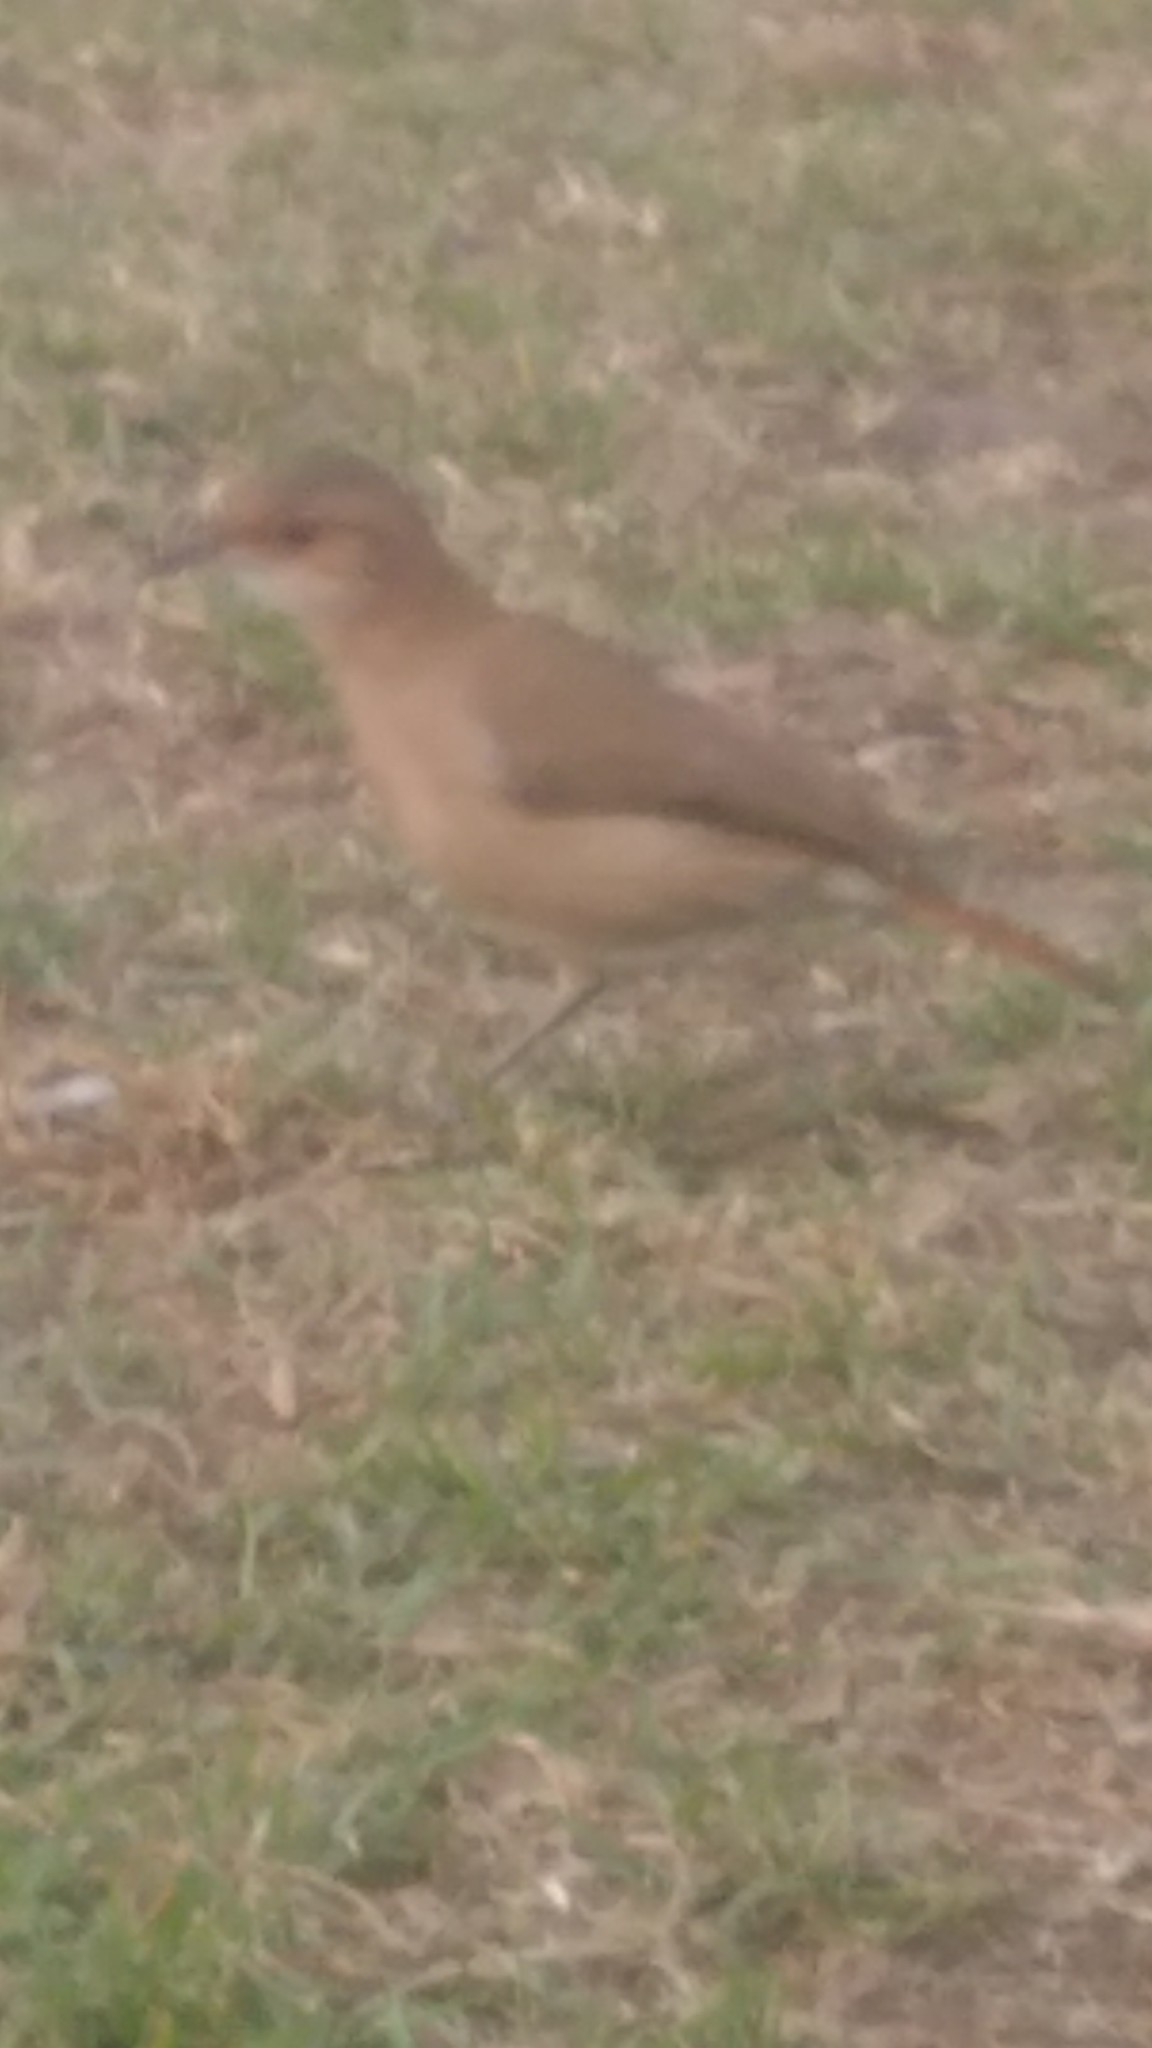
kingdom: Animalia
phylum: Chordata
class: Aves
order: Passeriformes
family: Furnariidae
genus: Furnarius
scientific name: Furnarius rufus
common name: Rufous hornero
